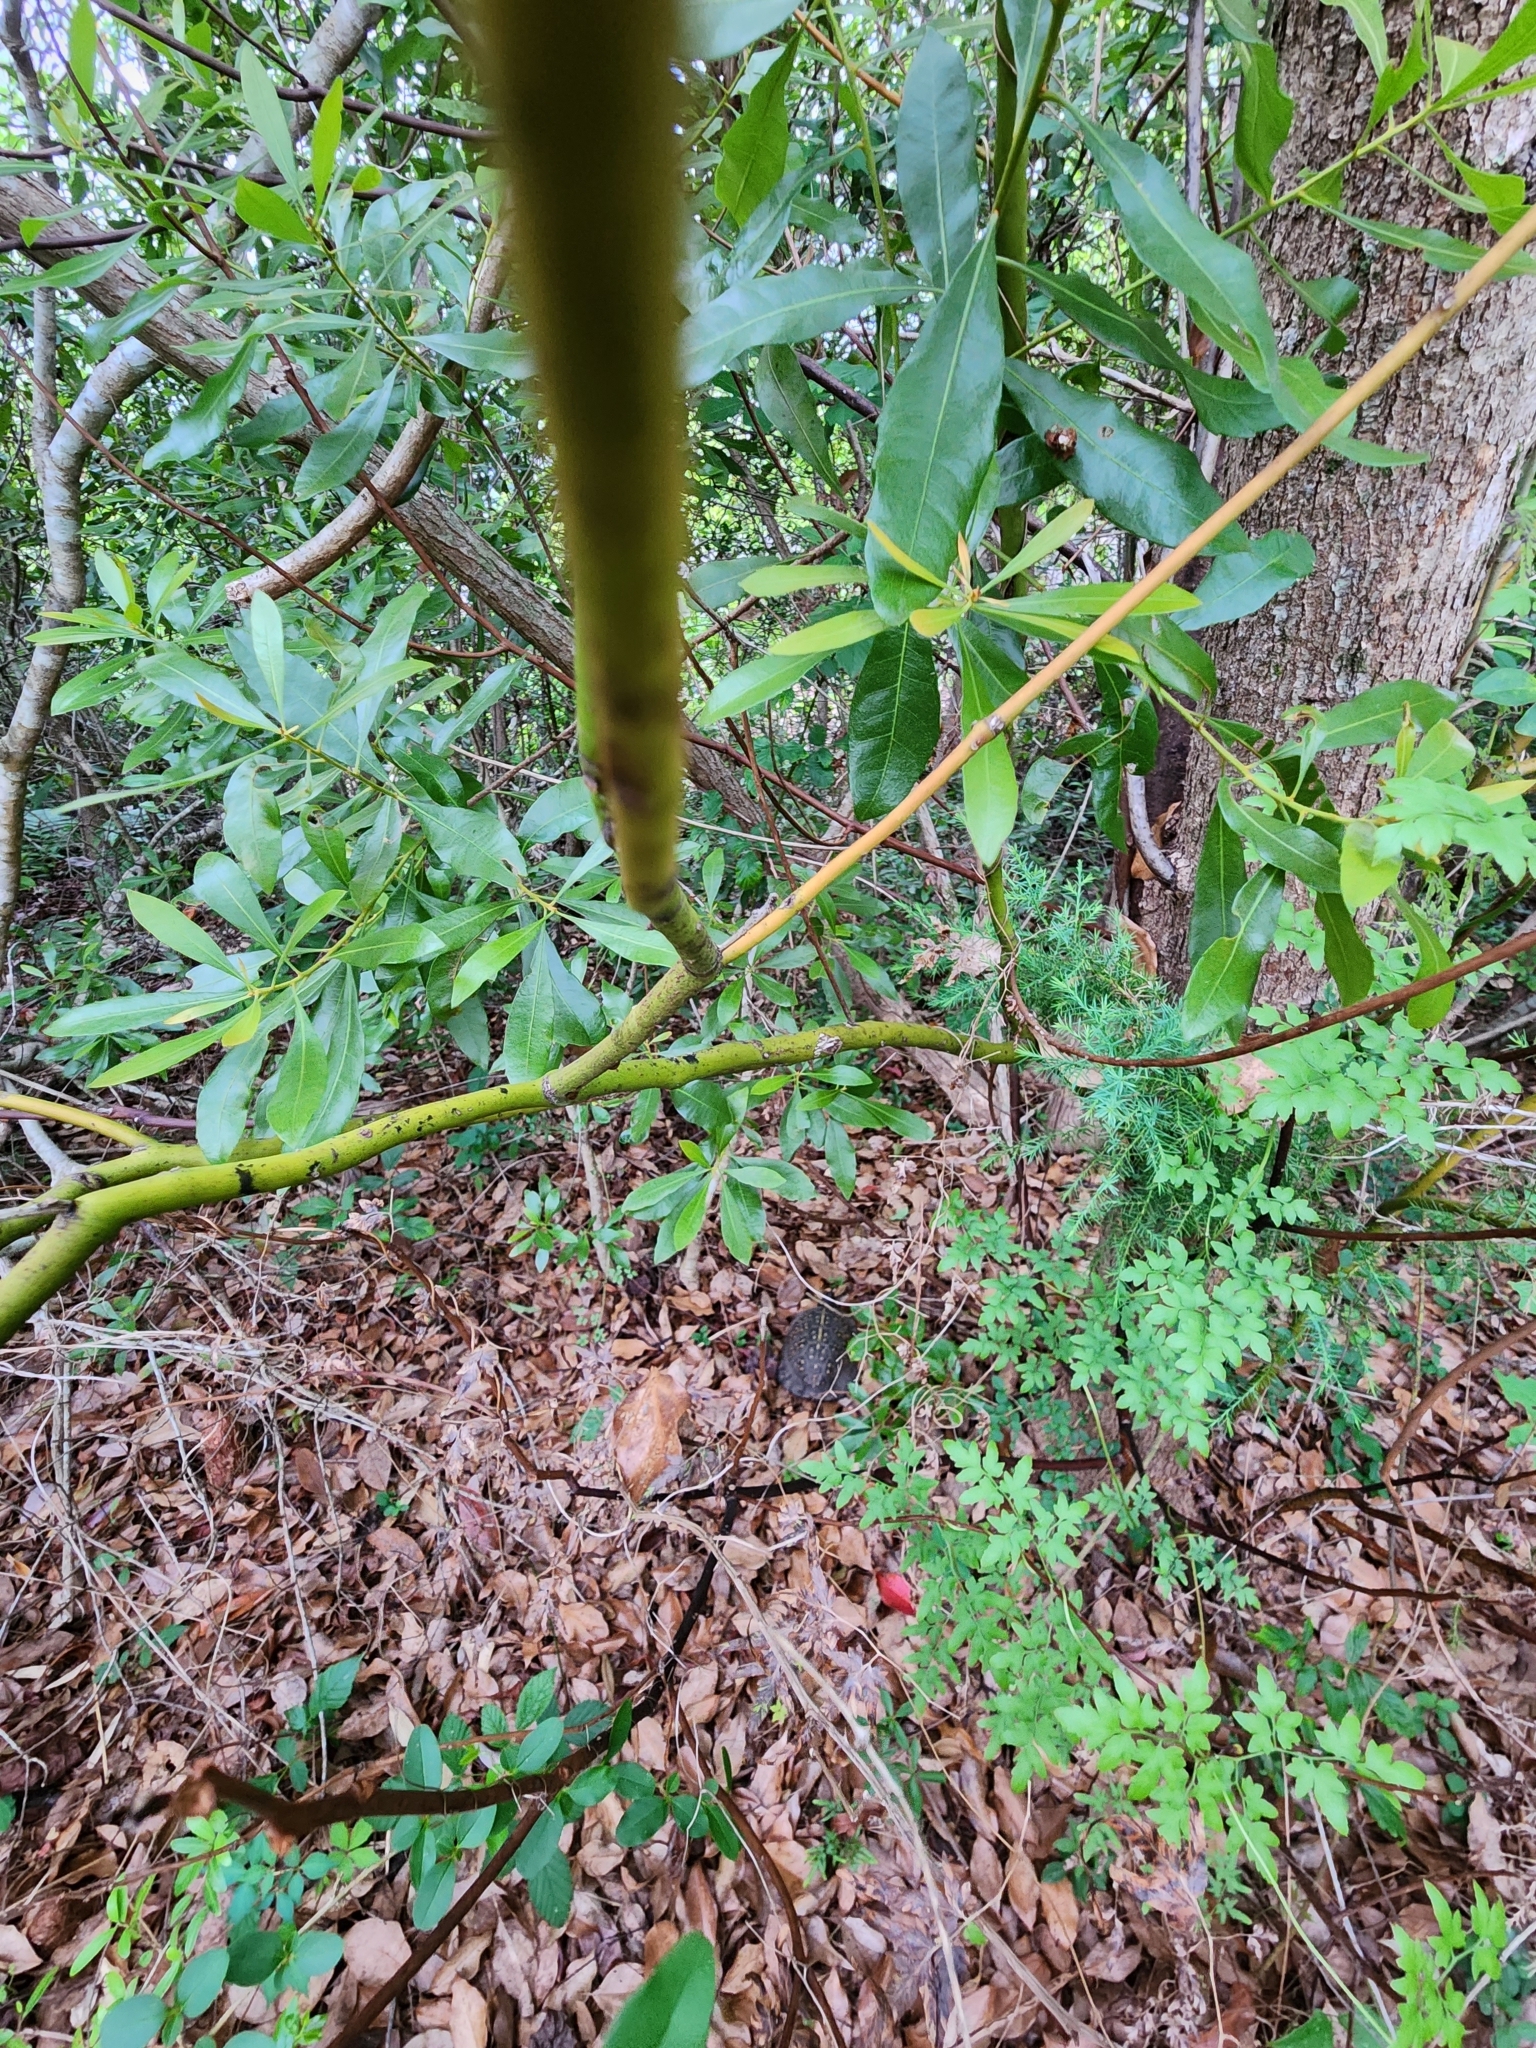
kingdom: Animalia
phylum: Chordata
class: Testudines
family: Emydidae
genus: Terrapene
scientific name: Terrapene carolina
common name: Common box turtle
